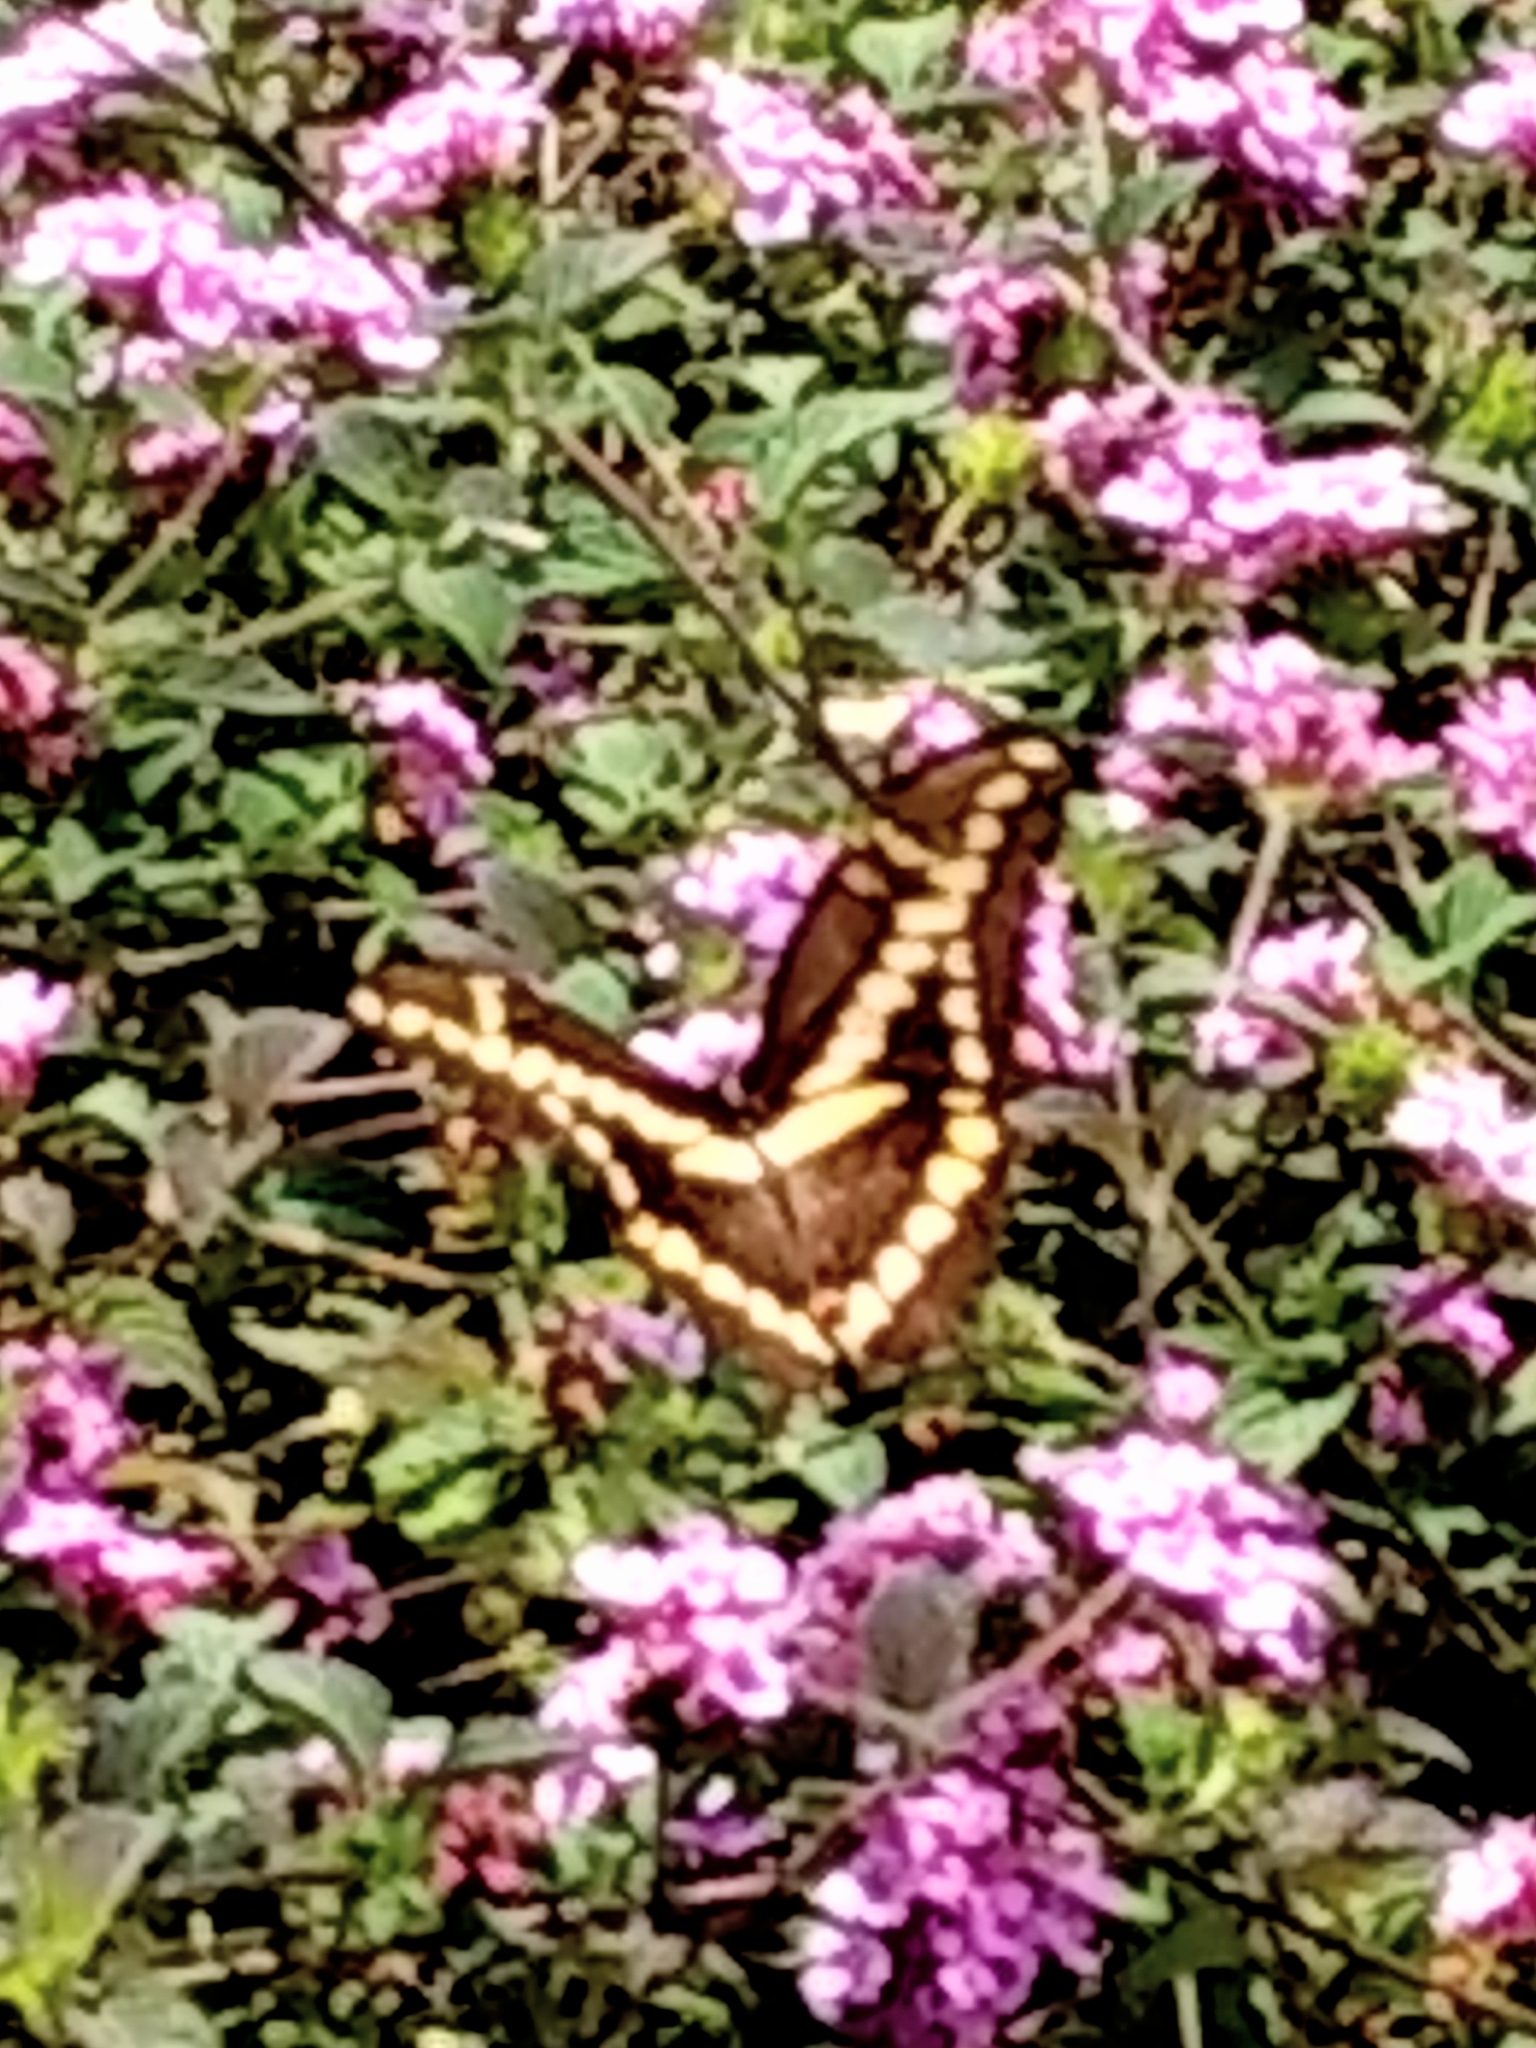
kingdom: Animalia
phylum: Arthropoda
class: Insecta
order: Lepidoptera
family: Papilionidae
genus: Papilio
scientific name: Papilio rumiko
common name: Western giant swallowtail
